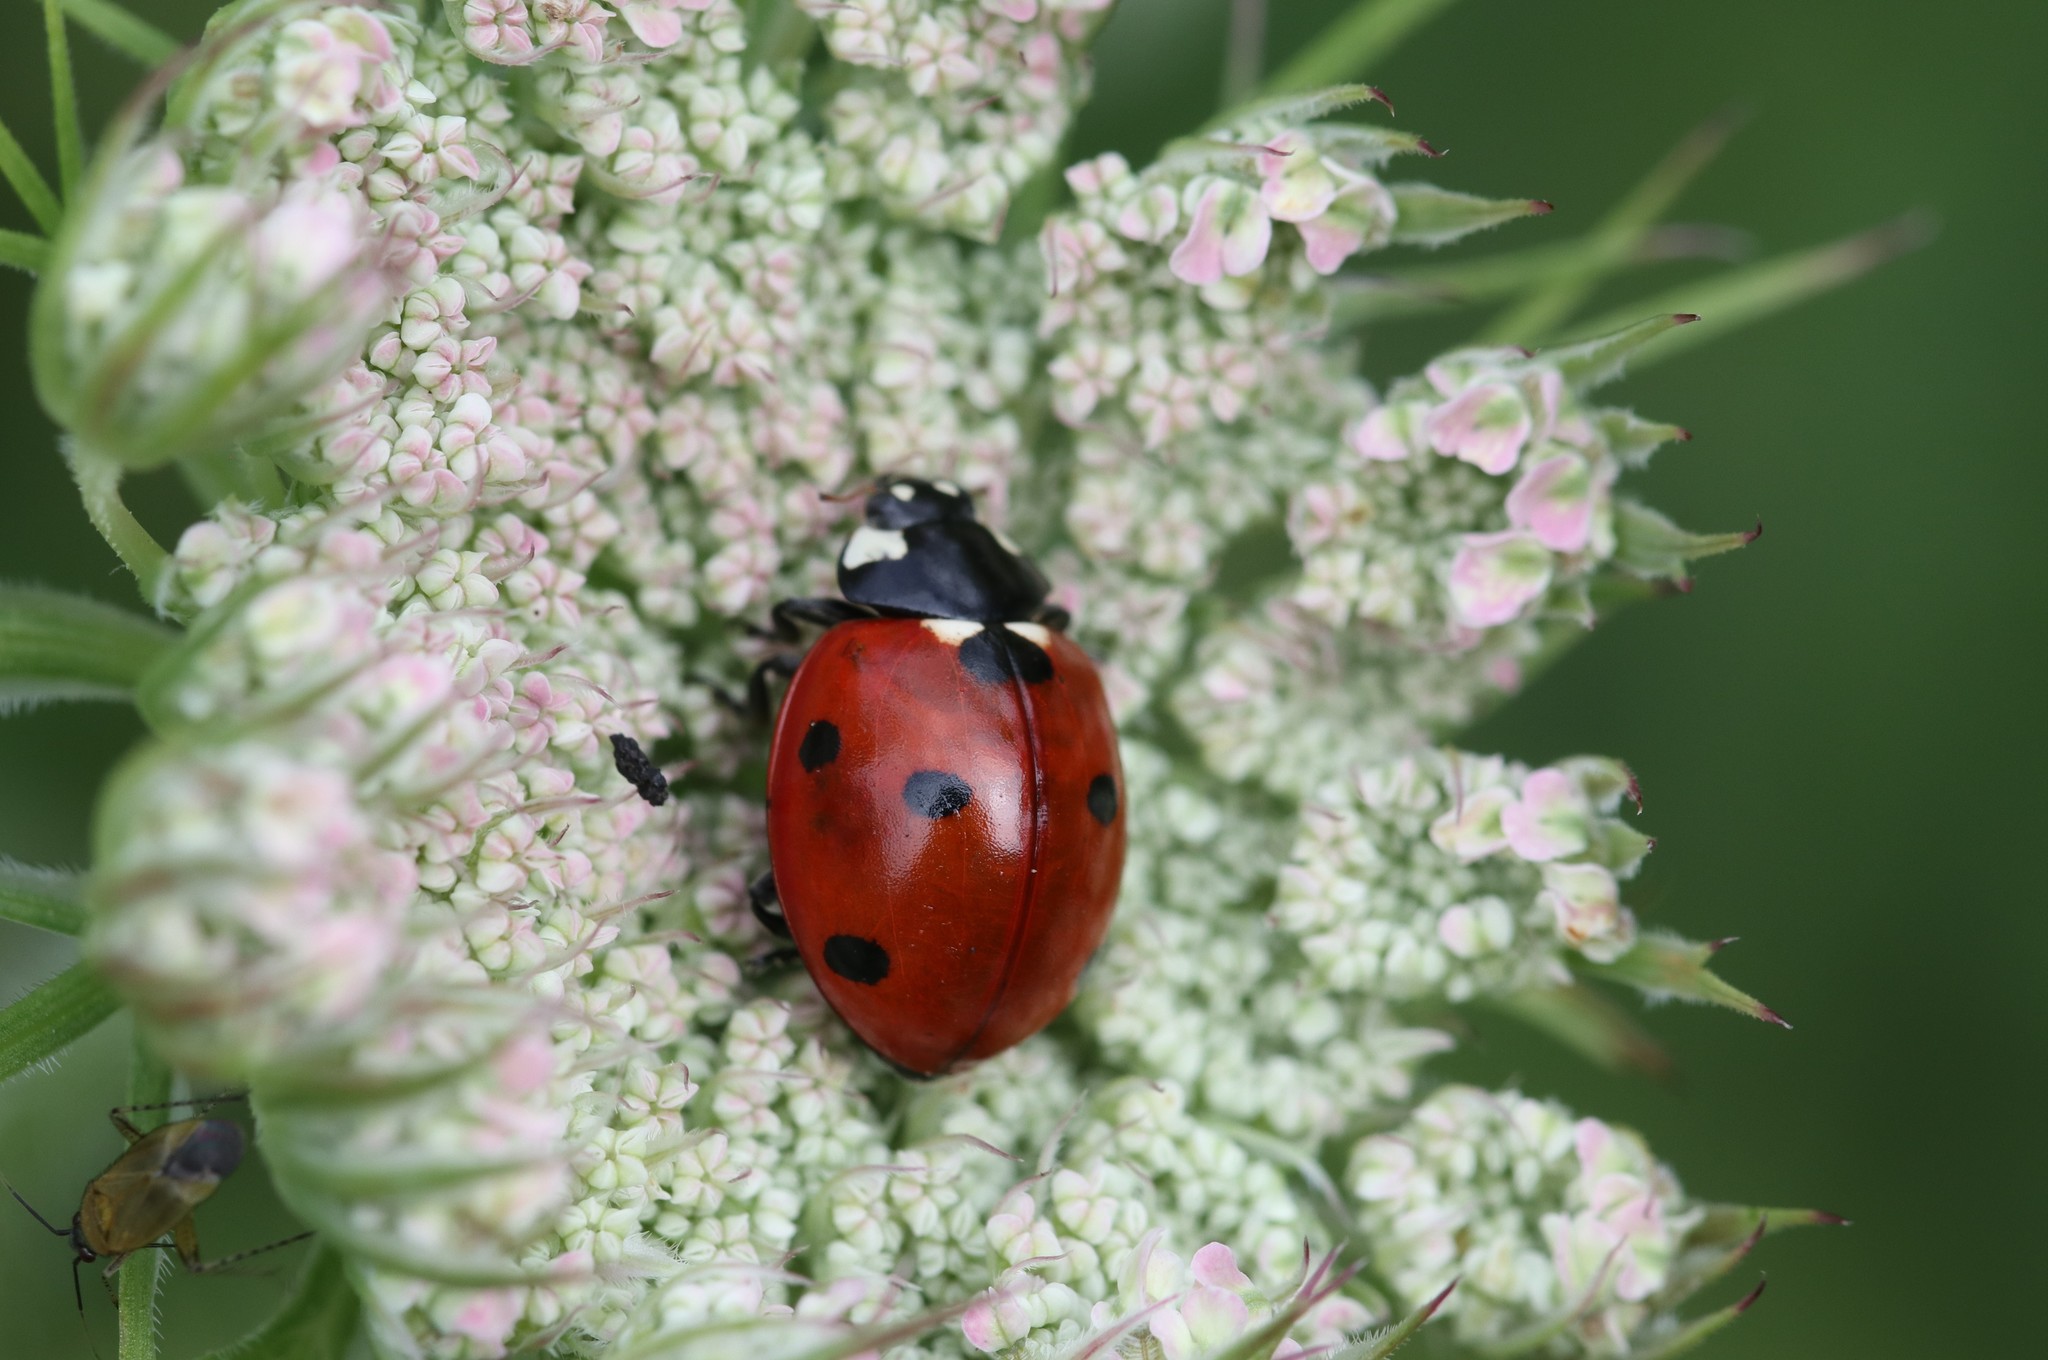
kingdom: Animalia
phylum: Arthropoda
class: Insecta
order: Coleoptera
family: Coccinellidae
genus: Coccinella
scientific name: Coccinella septempunctata
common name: Sevenspotted lady beetle
